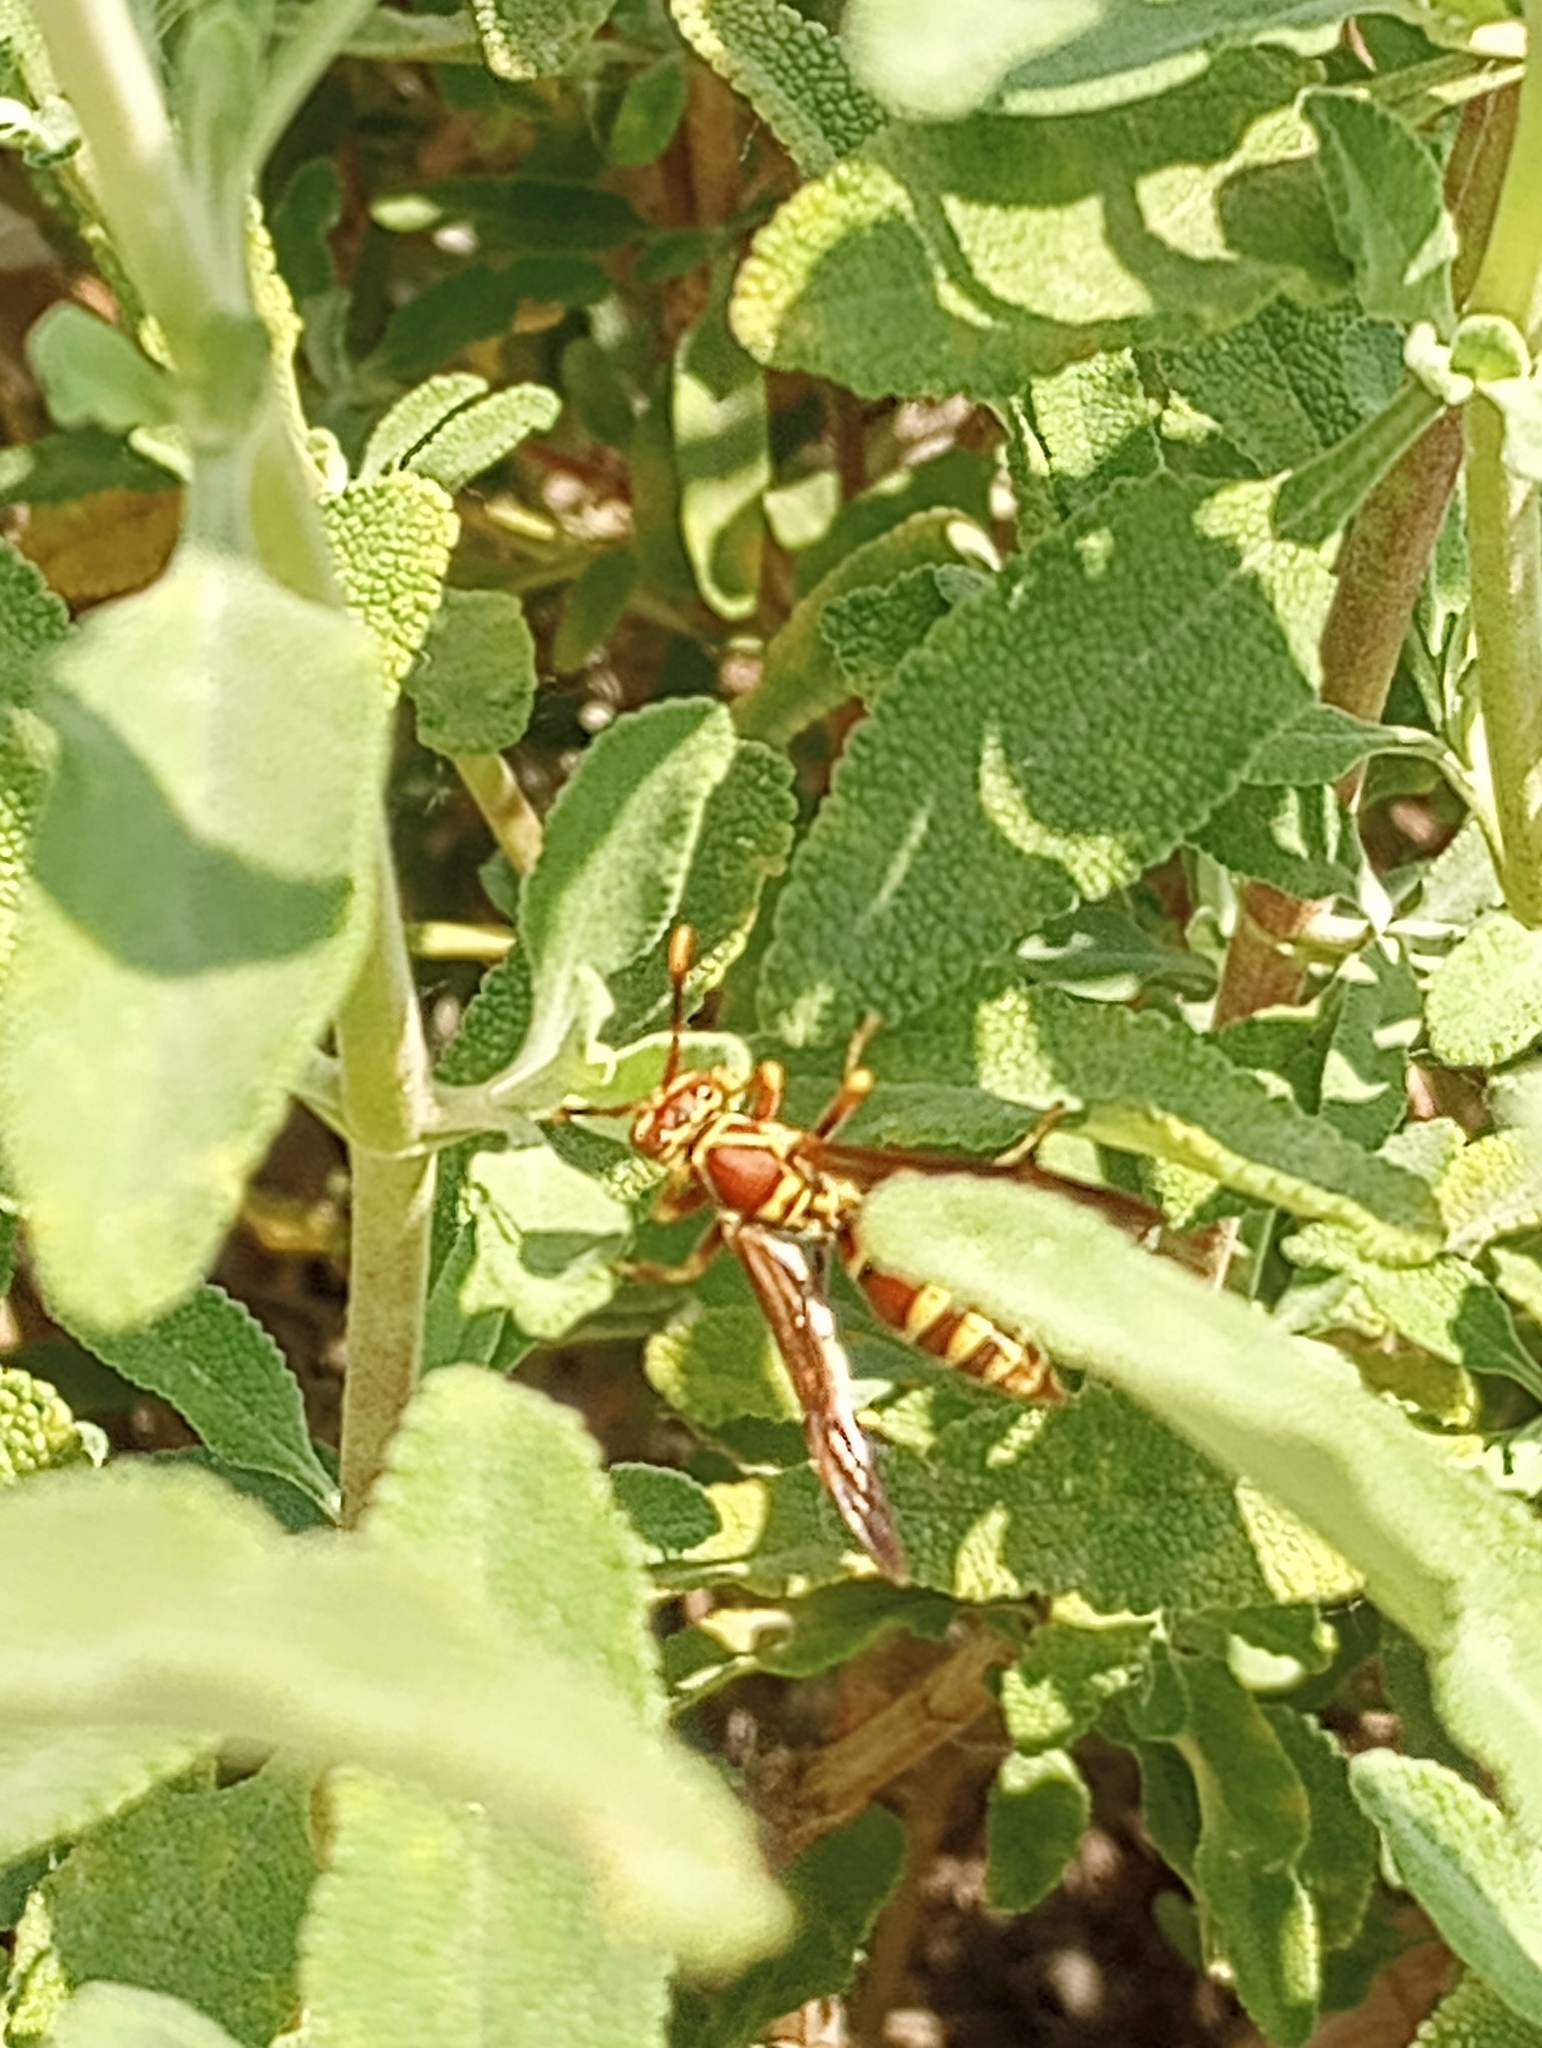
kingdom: Animalia
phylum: Arthropoda
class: Insecta
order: Hymenoptera
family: Eumenidae
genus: Polistes
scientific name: Polistes exclamans
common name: Paper wasp
